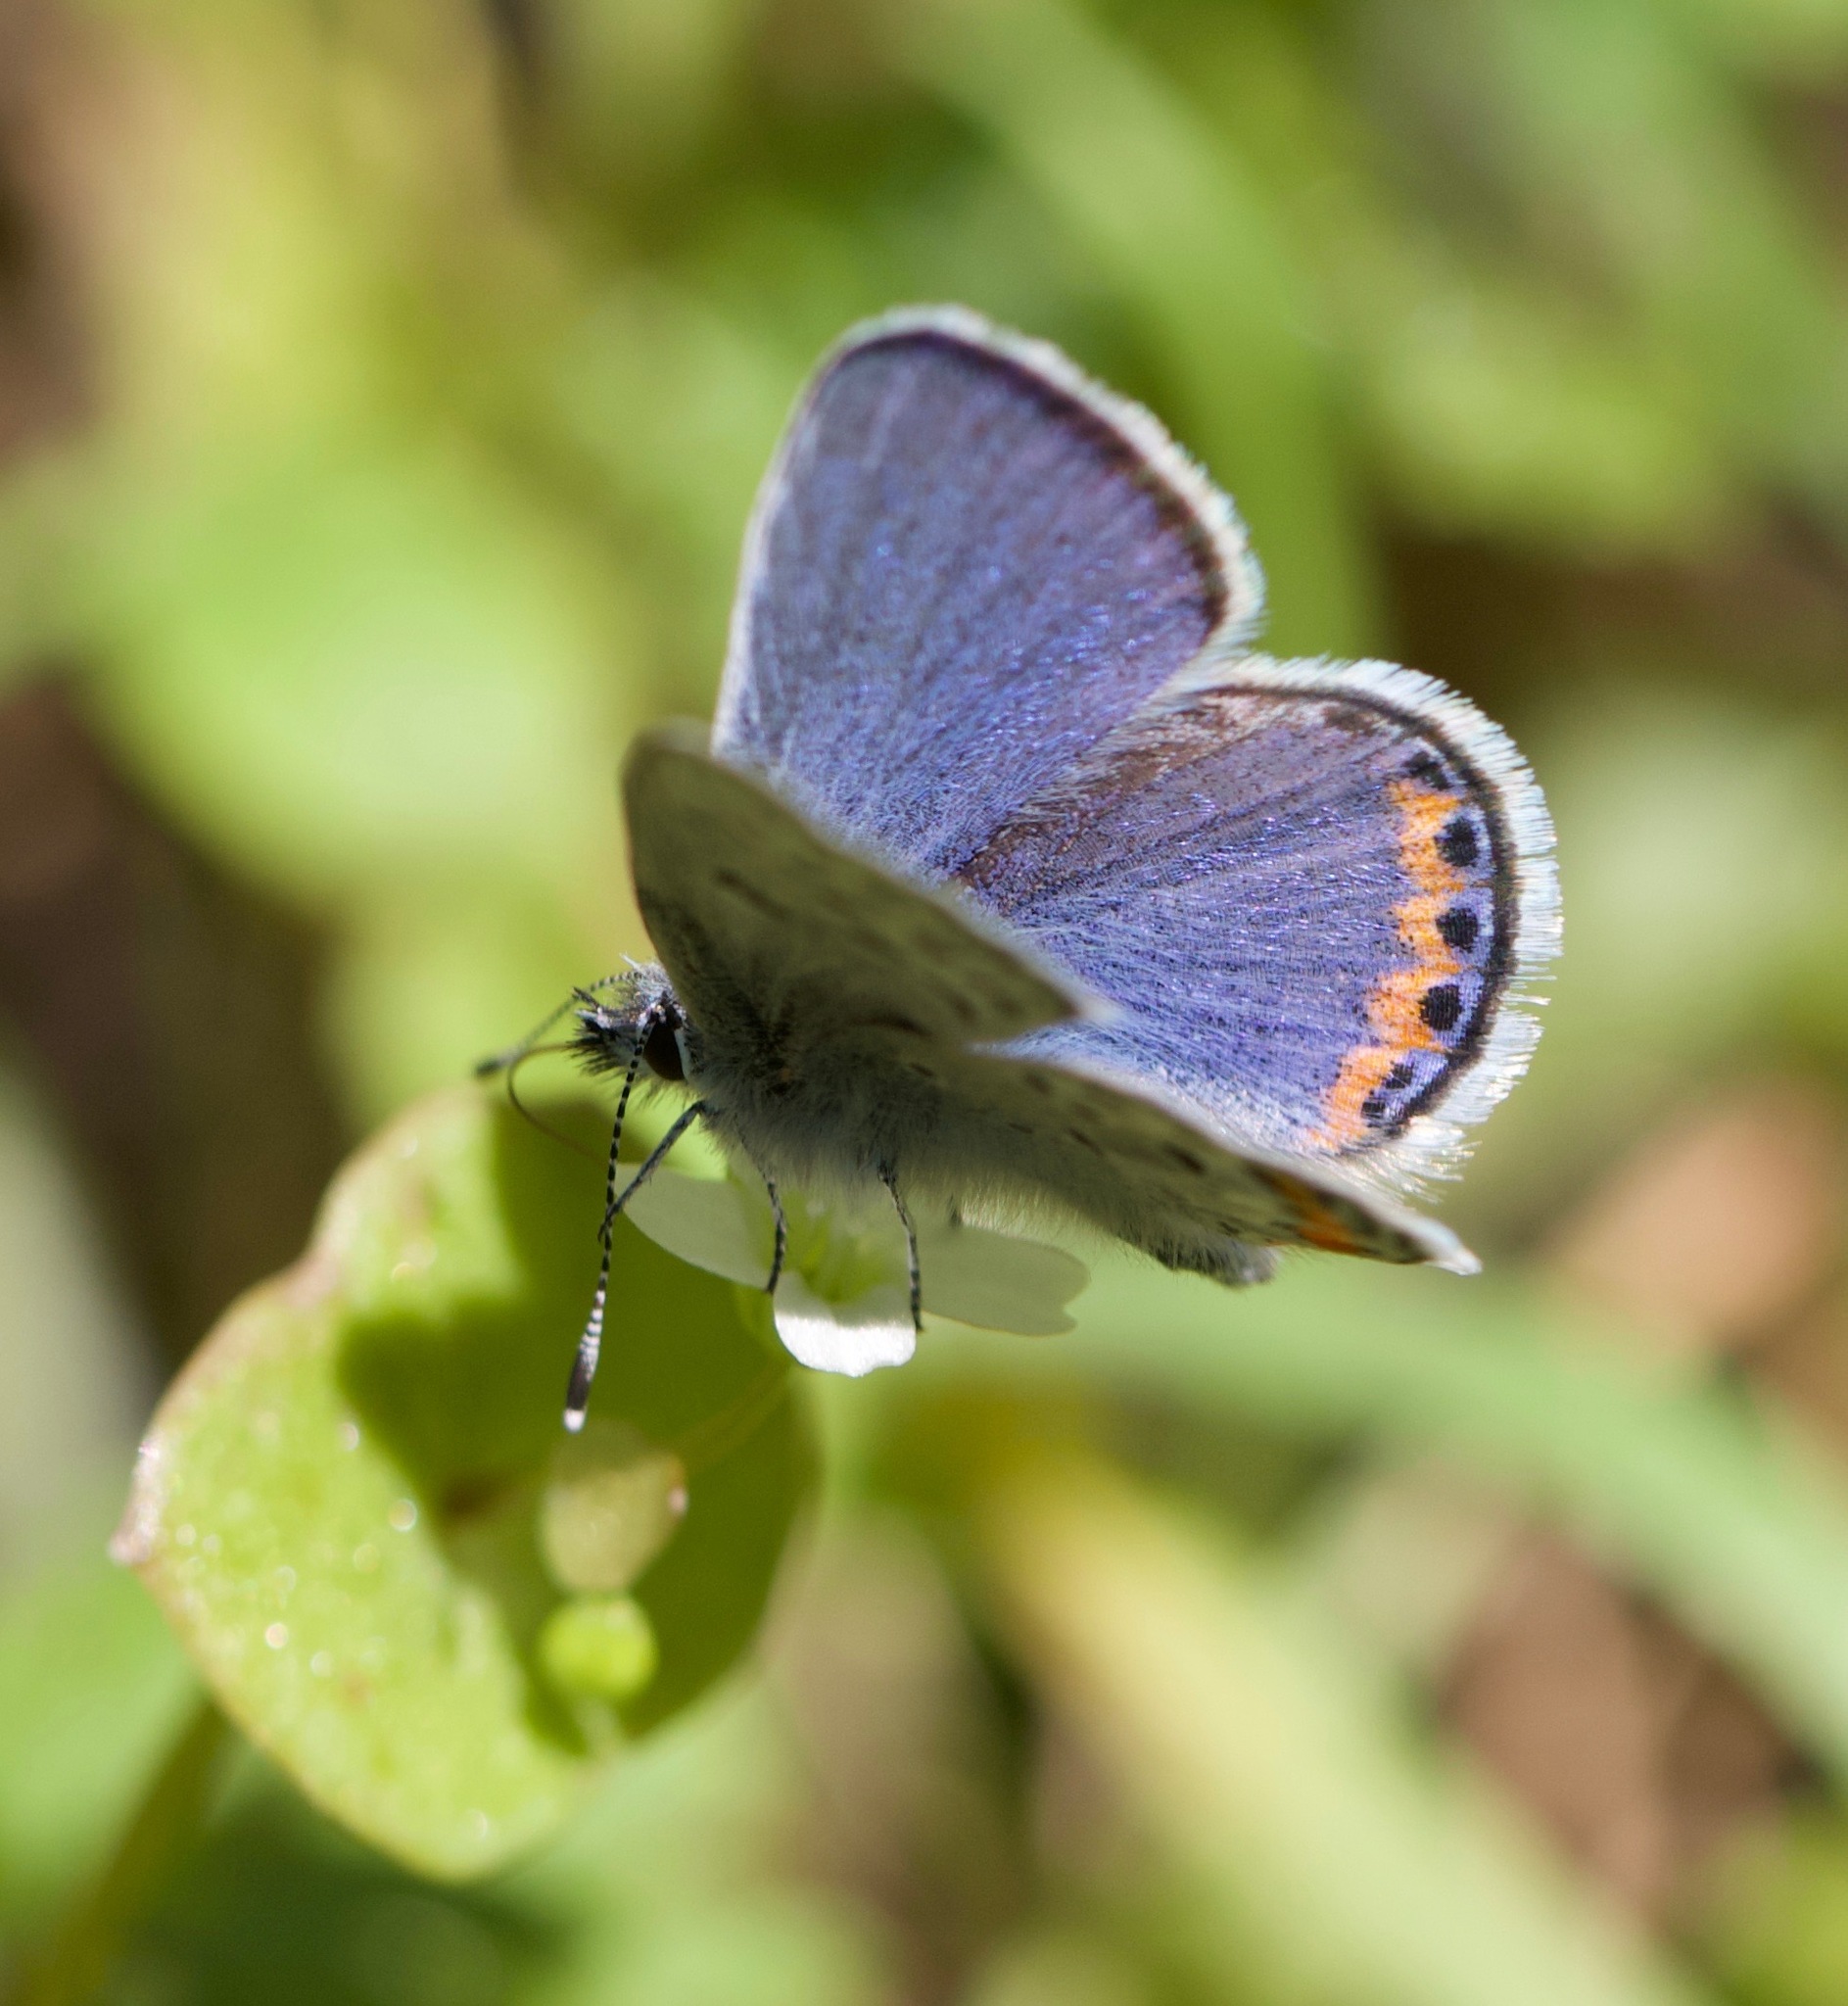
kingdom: Animalia
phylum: Arthropoda
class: Insecta
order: Lepidoptera
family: Lycaenidae
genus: Icaricia
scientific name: Icaricia acmon
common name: Acmon blue
